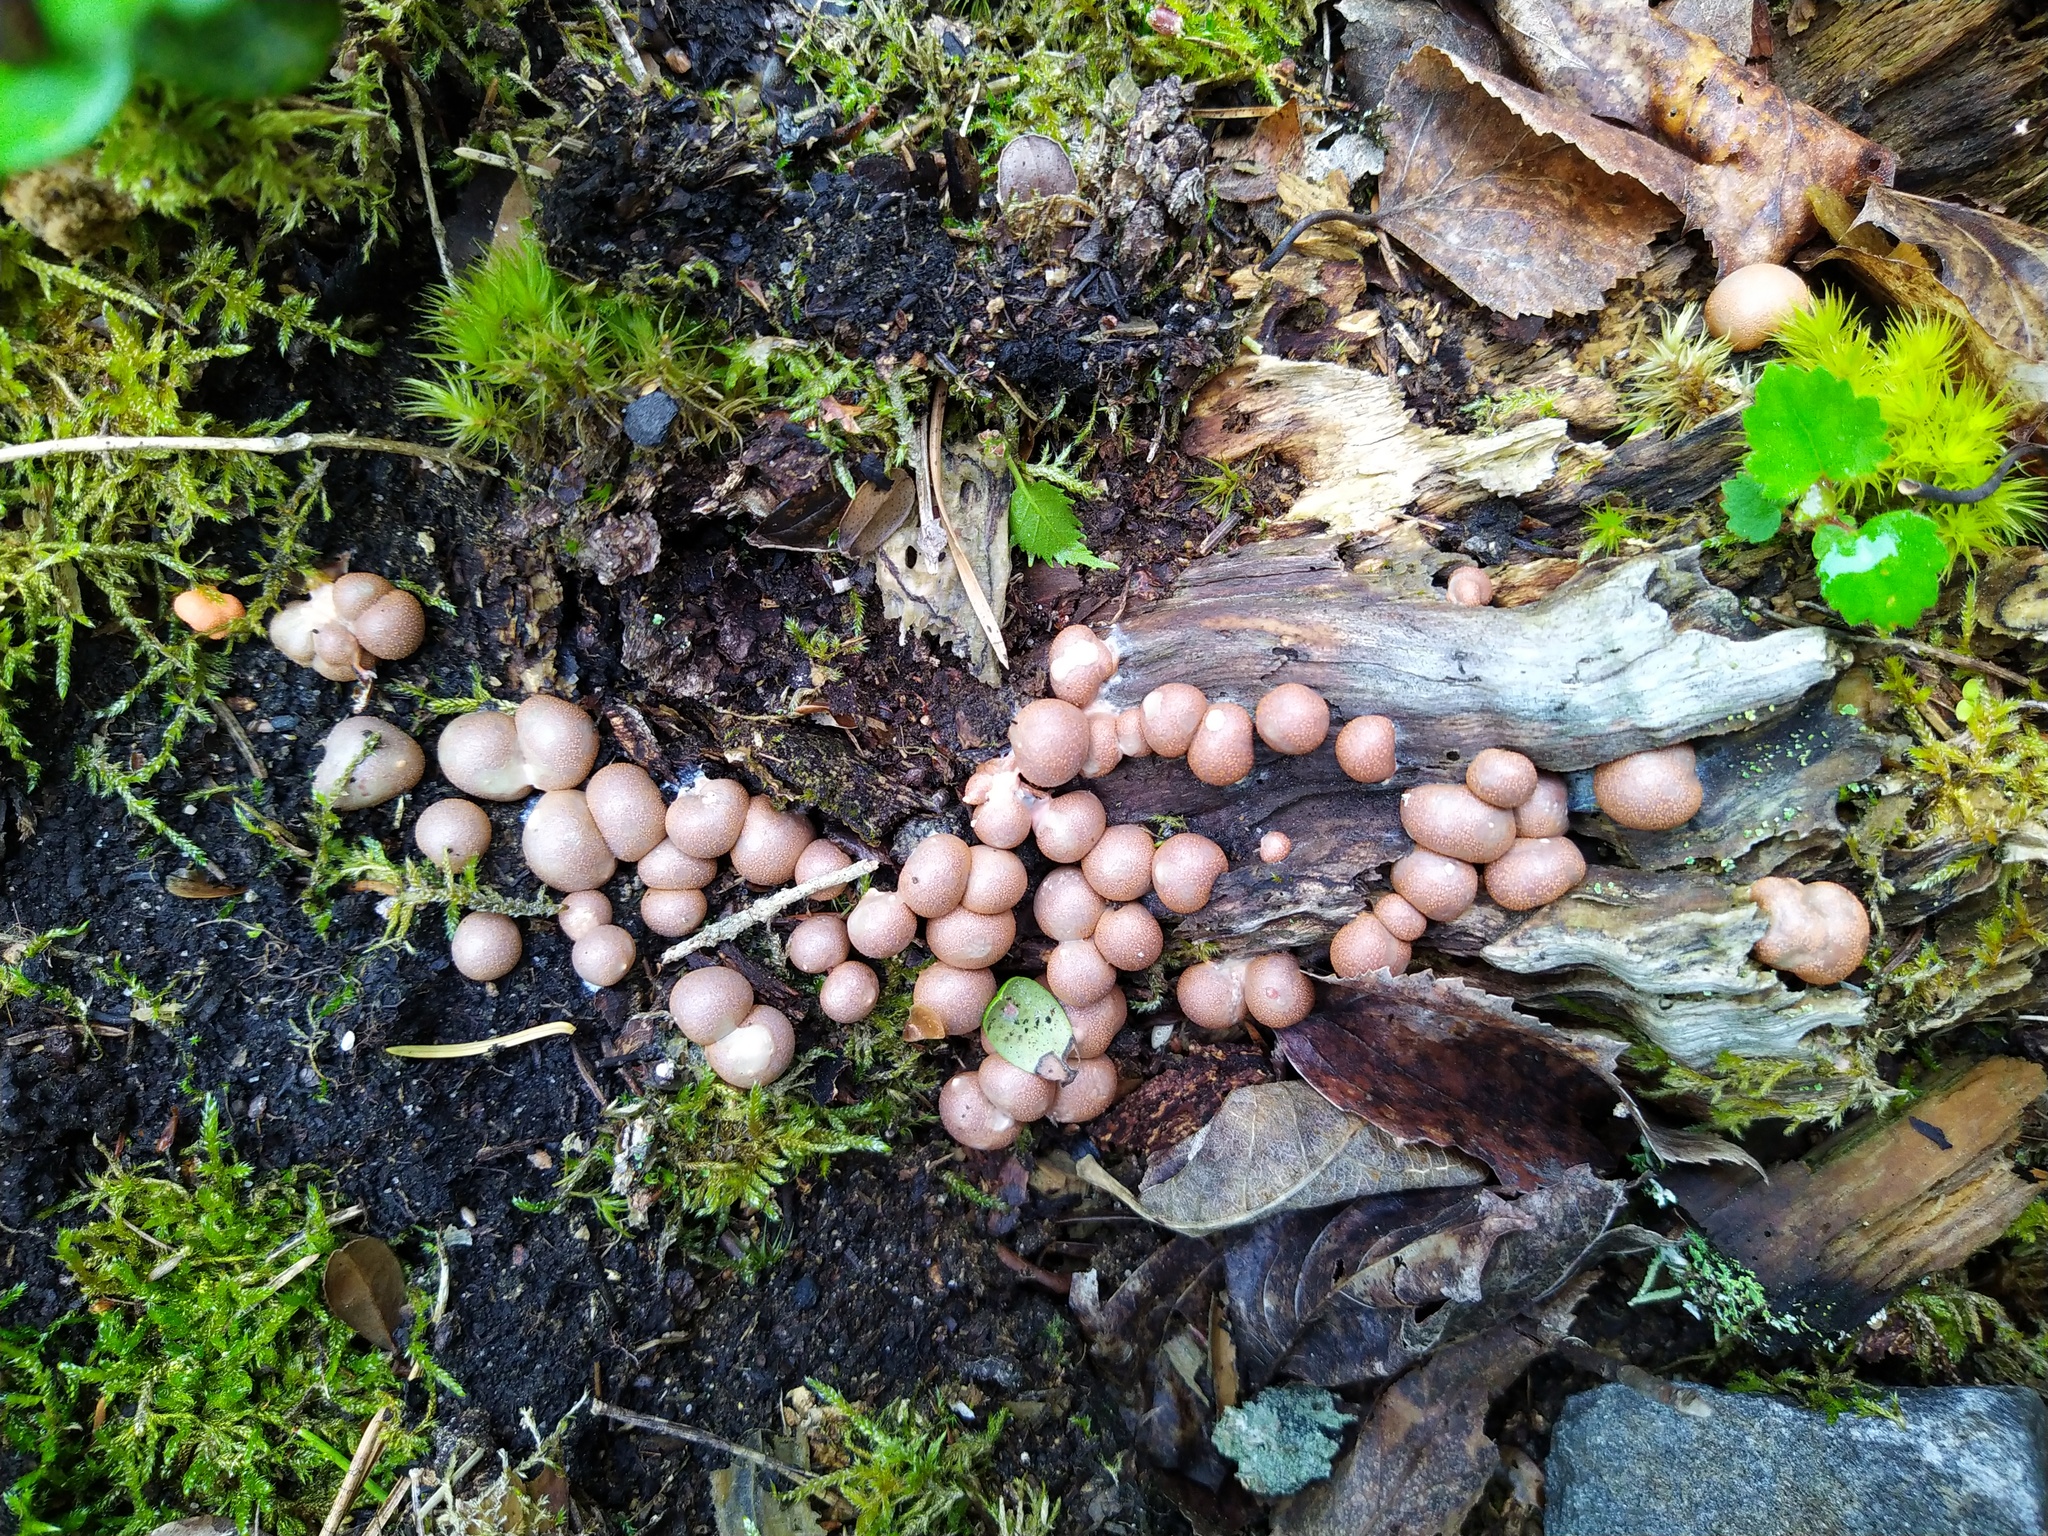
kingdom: Protozoa
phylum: Mycetozoa
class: Myxomycetes
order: Cribrariales
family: Tubiferaceae
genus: Lycogala
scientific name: Lycogala epidendrum
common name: Wolf's milk
